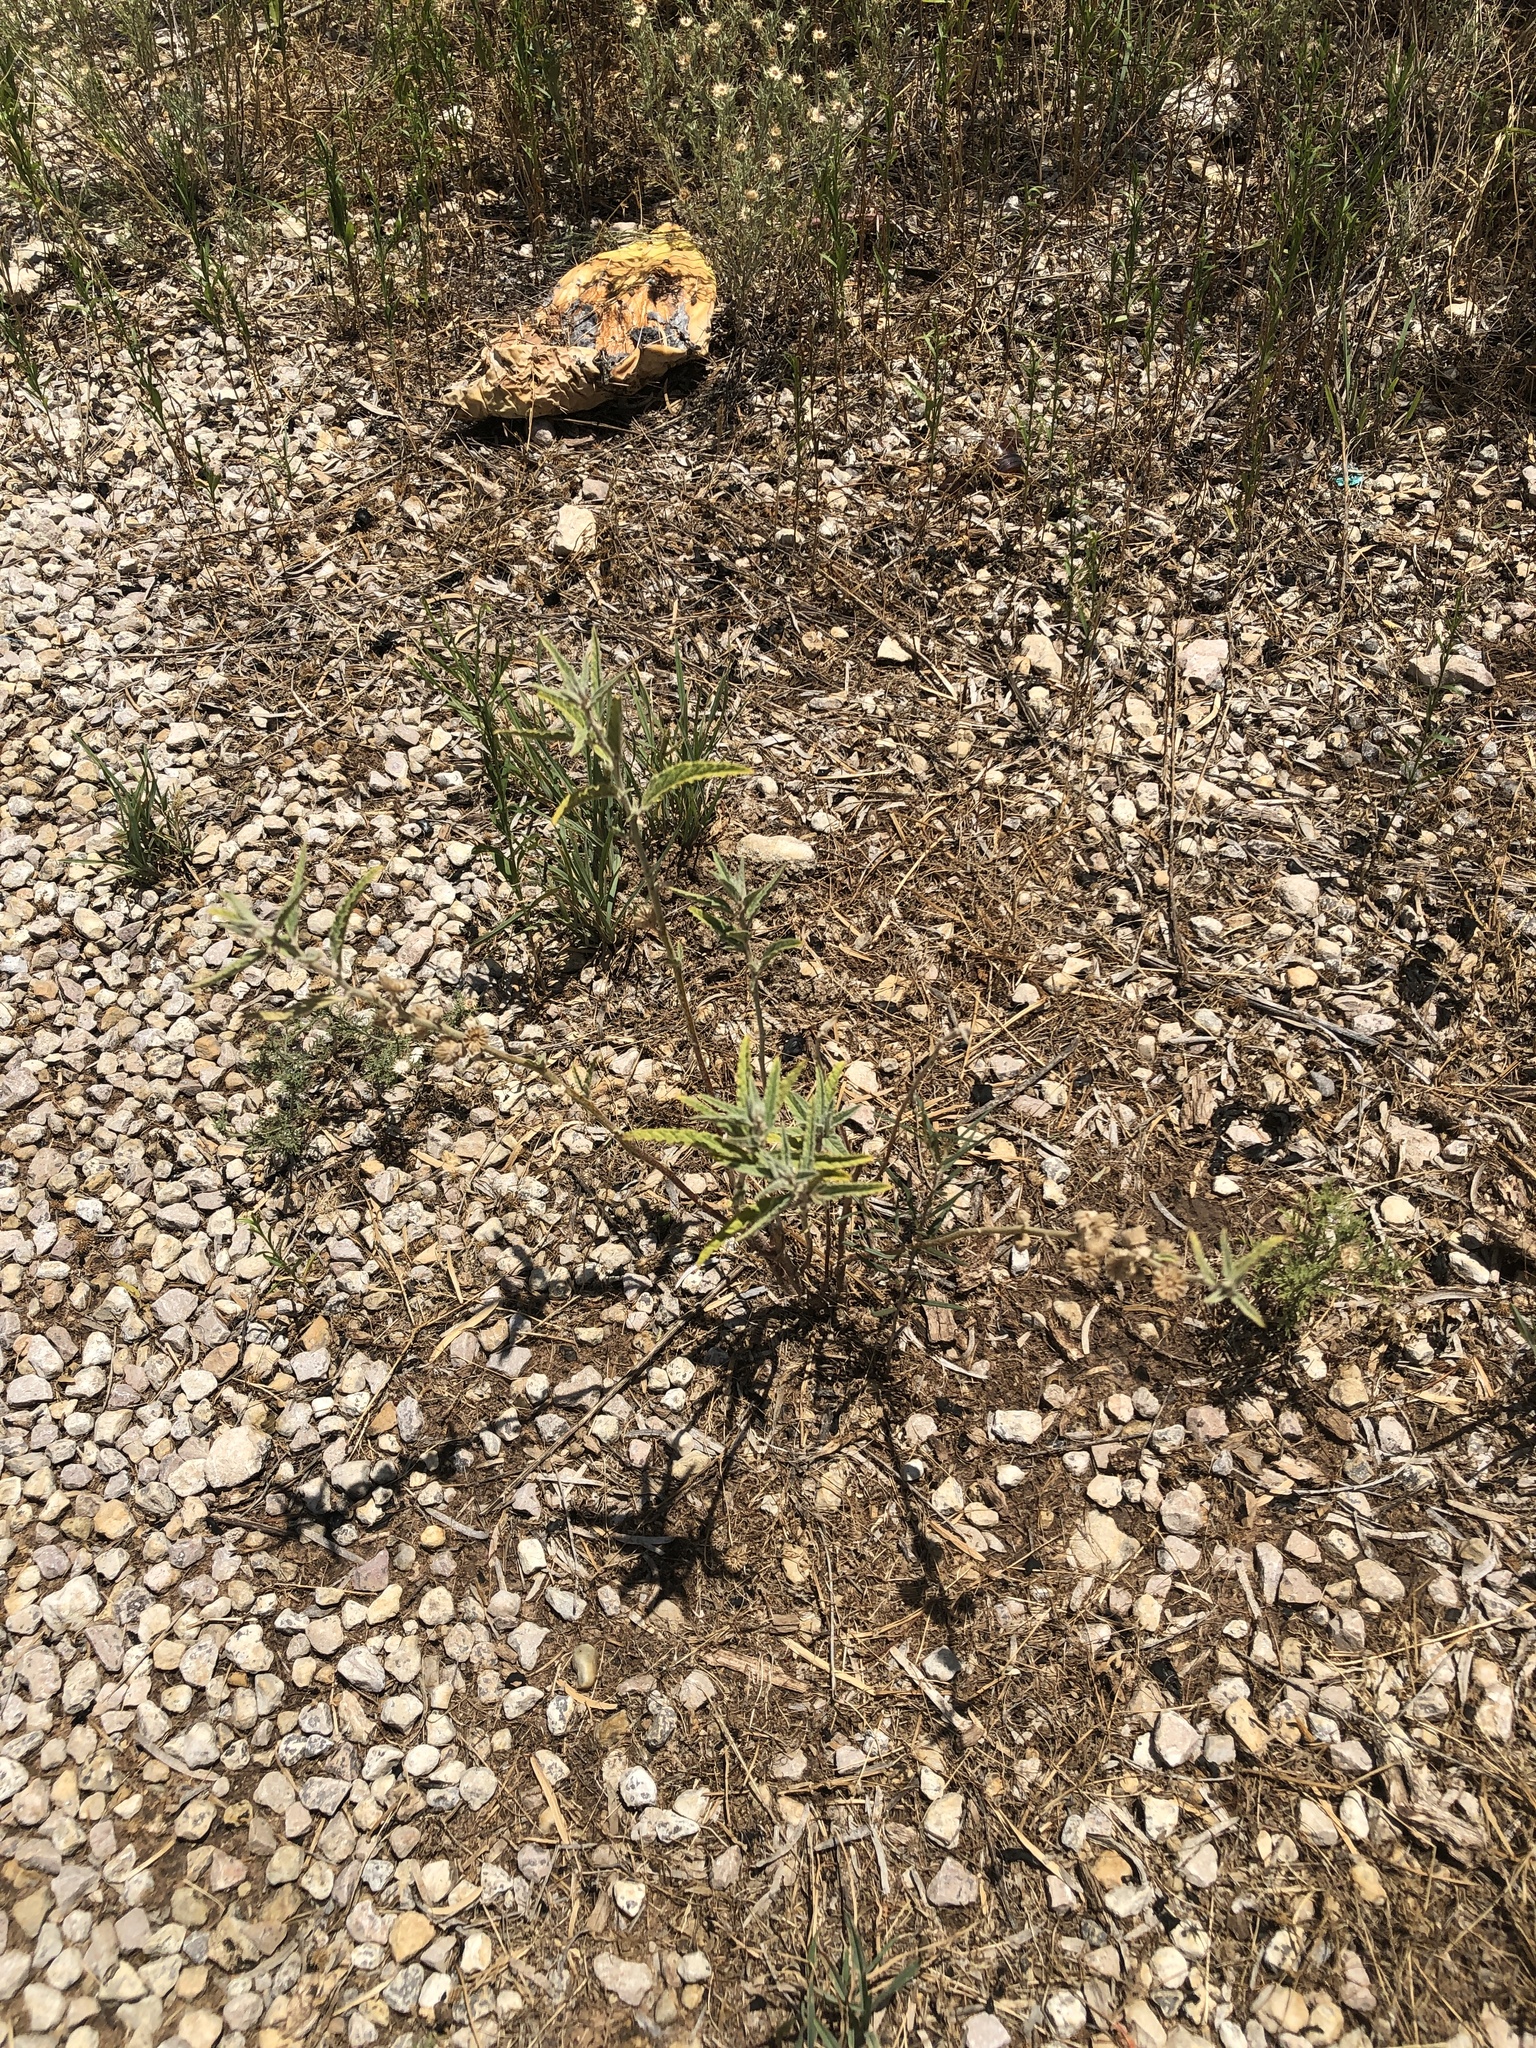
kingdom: Plantae
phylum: Tracheophyta
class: Magnoliopsida
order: Malvales
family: Malvaceae
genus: Sphaeralcea
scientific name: Sphaeralcea angustifolia
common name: Copper globe-mallow
